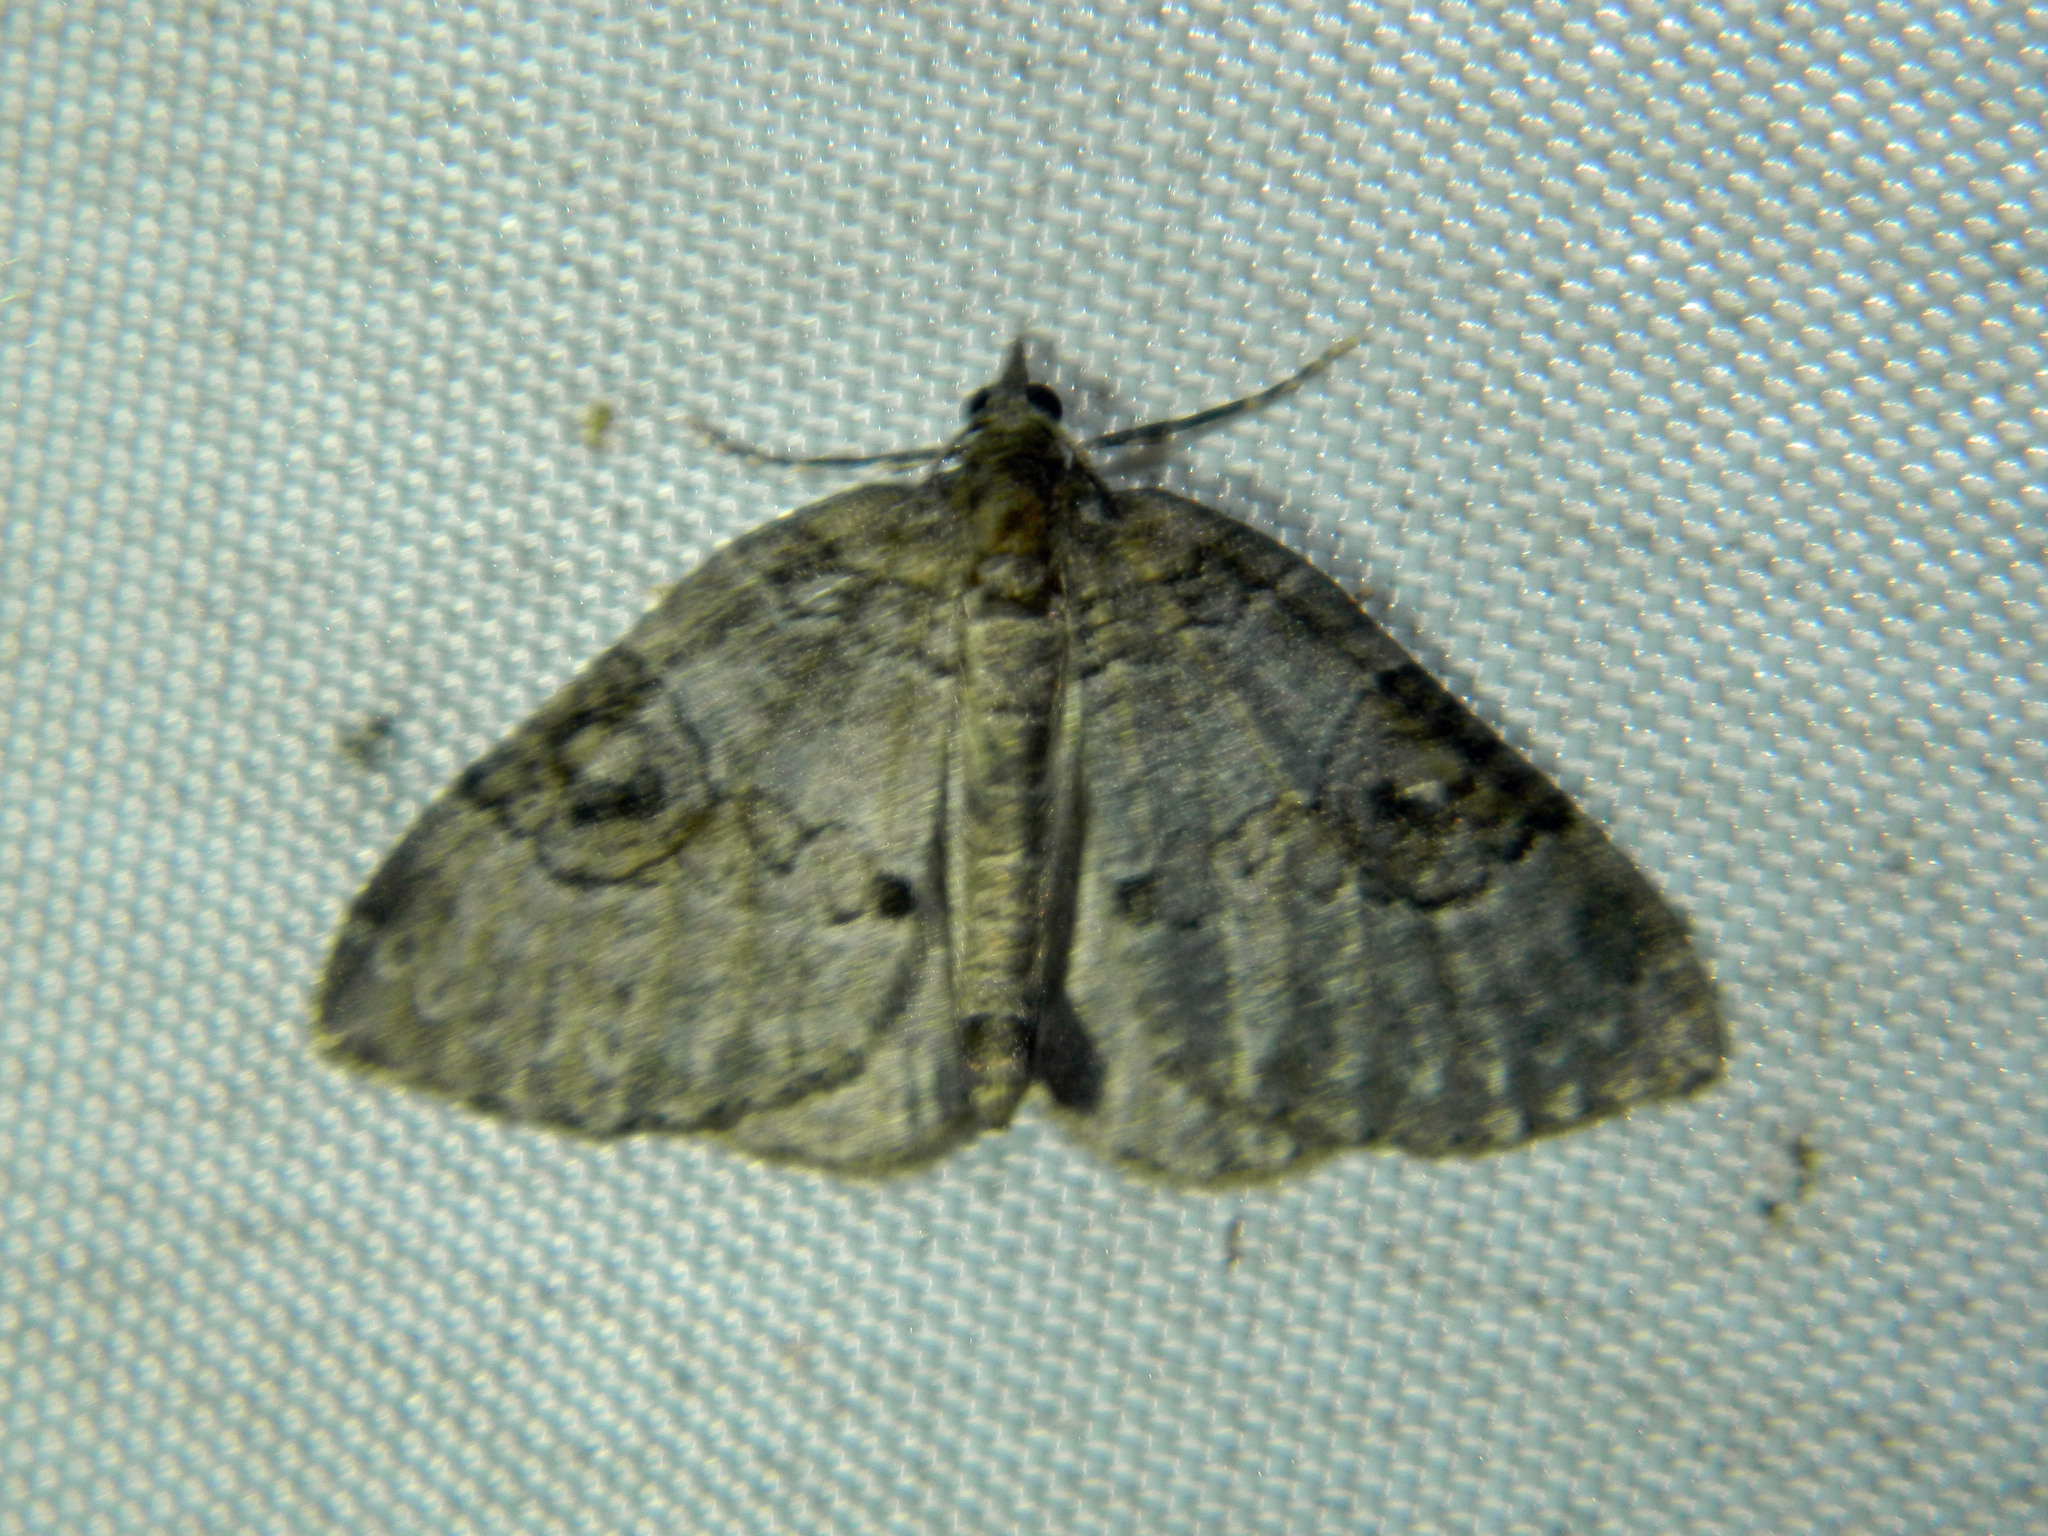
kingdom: Animalia
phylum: Arthropoda
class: Insecta
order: Lepidoptera
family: Geometridae
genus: Plemyria
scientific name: Plemyria georgii
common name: George's carpet moth
